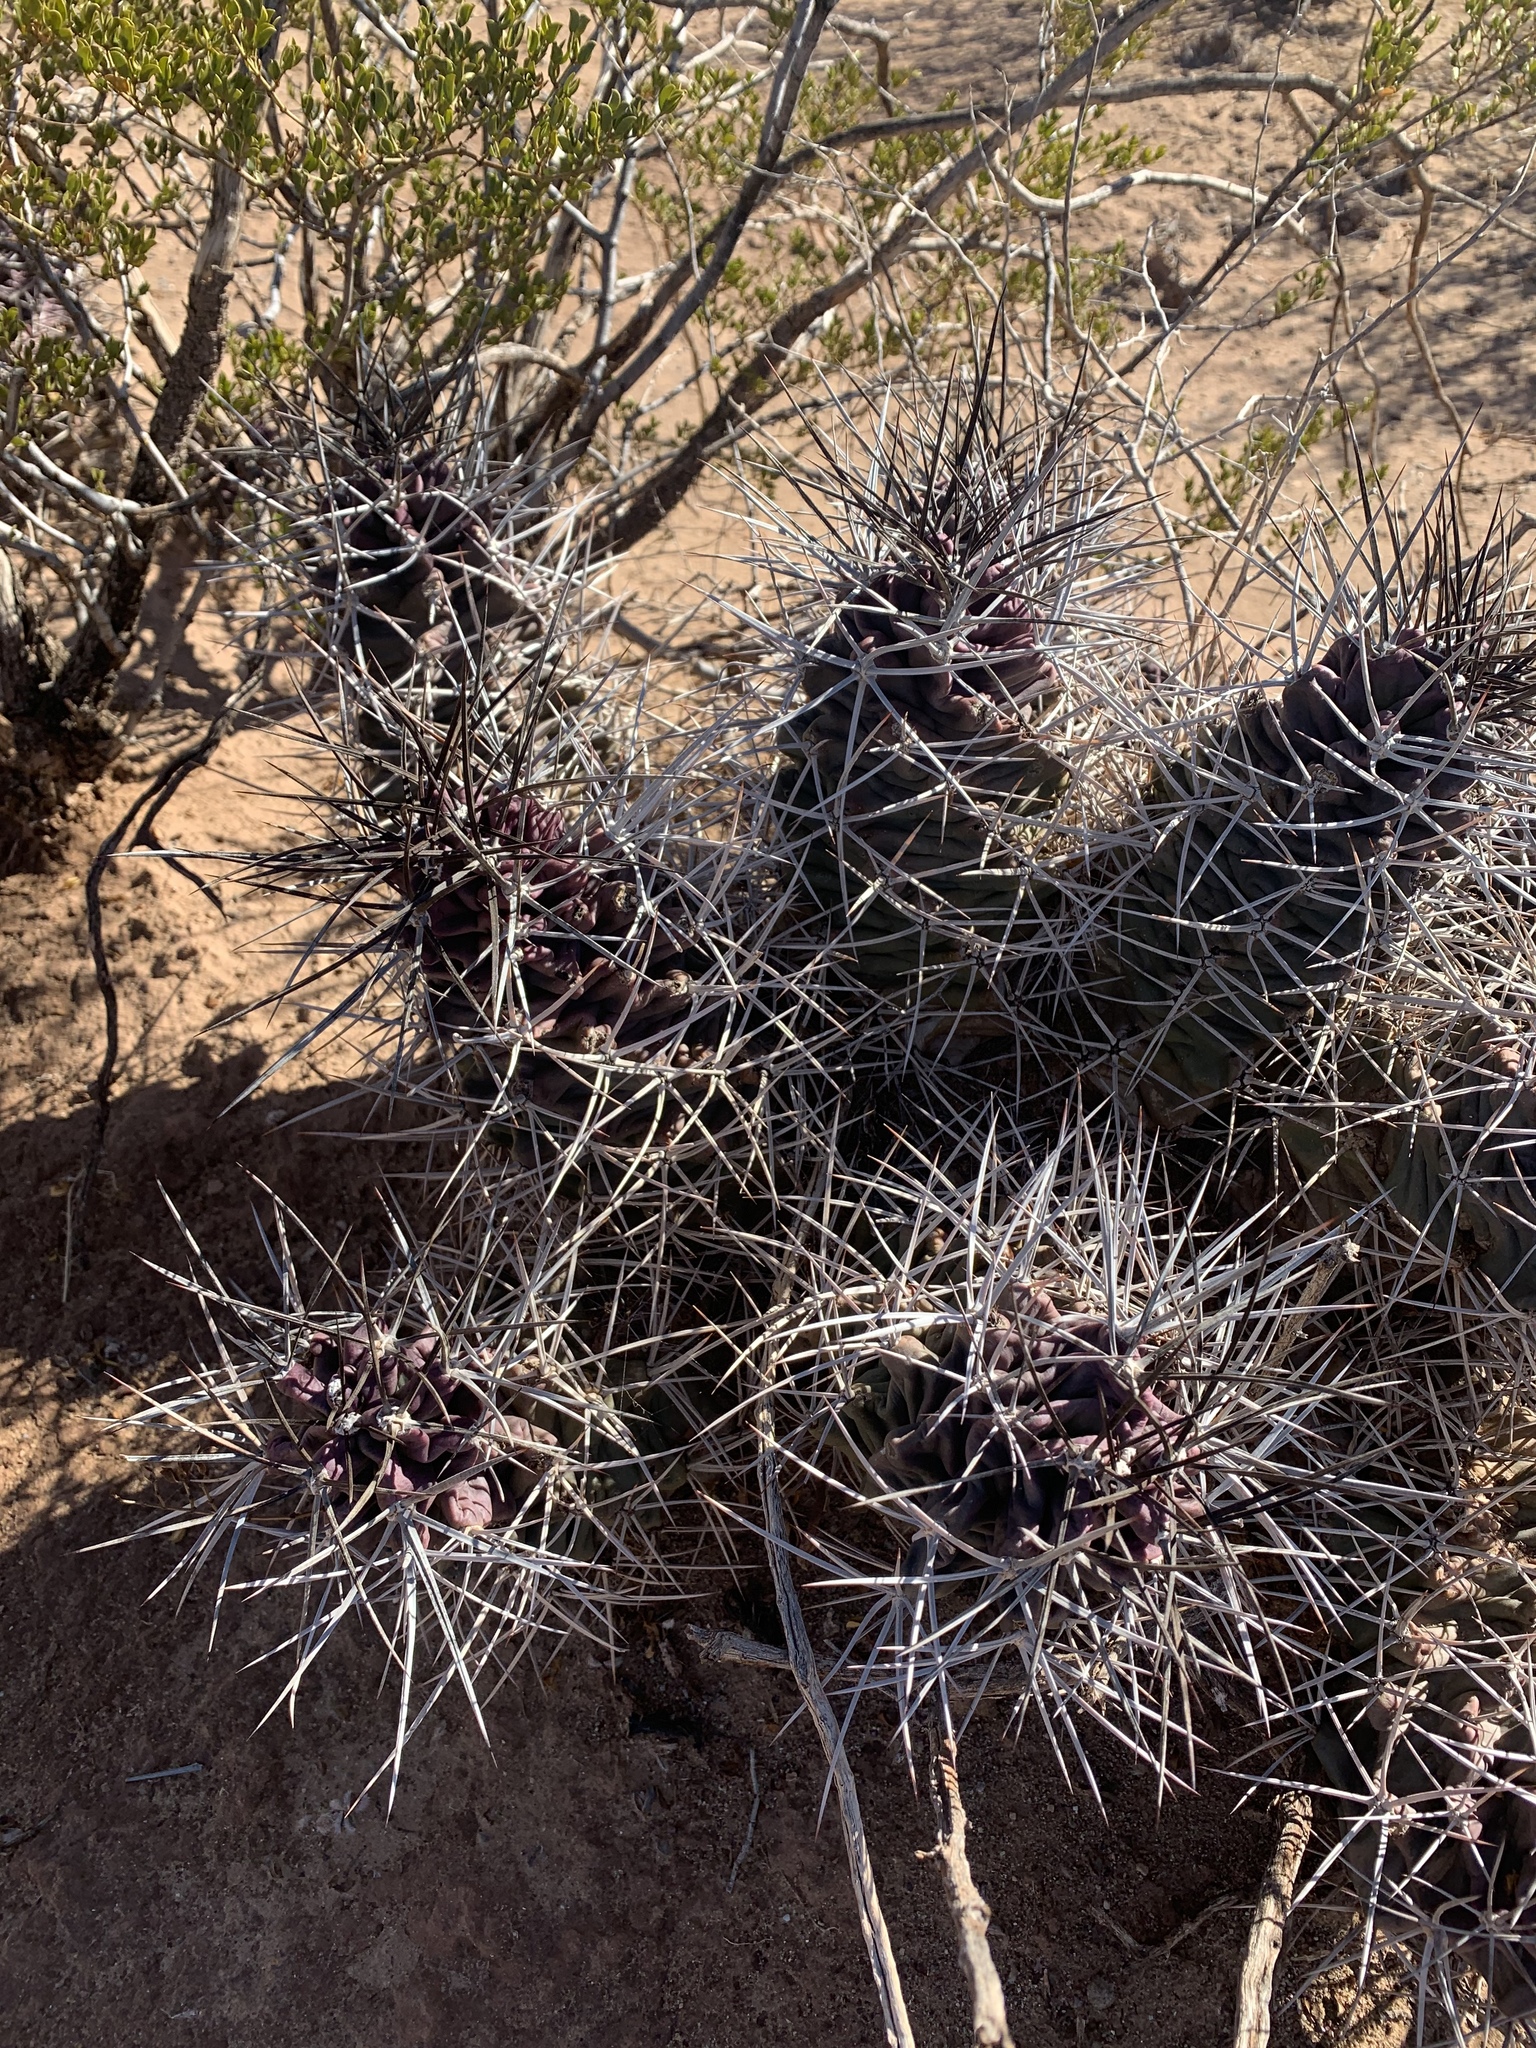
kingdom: Plantae
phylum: Tracheophyta
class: Magnoliopsida
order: Caryophyllales
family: Cactaceae
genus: Echinocereus
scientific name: Echinocereus triglochidiatus
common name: Claretcup hedgehog
